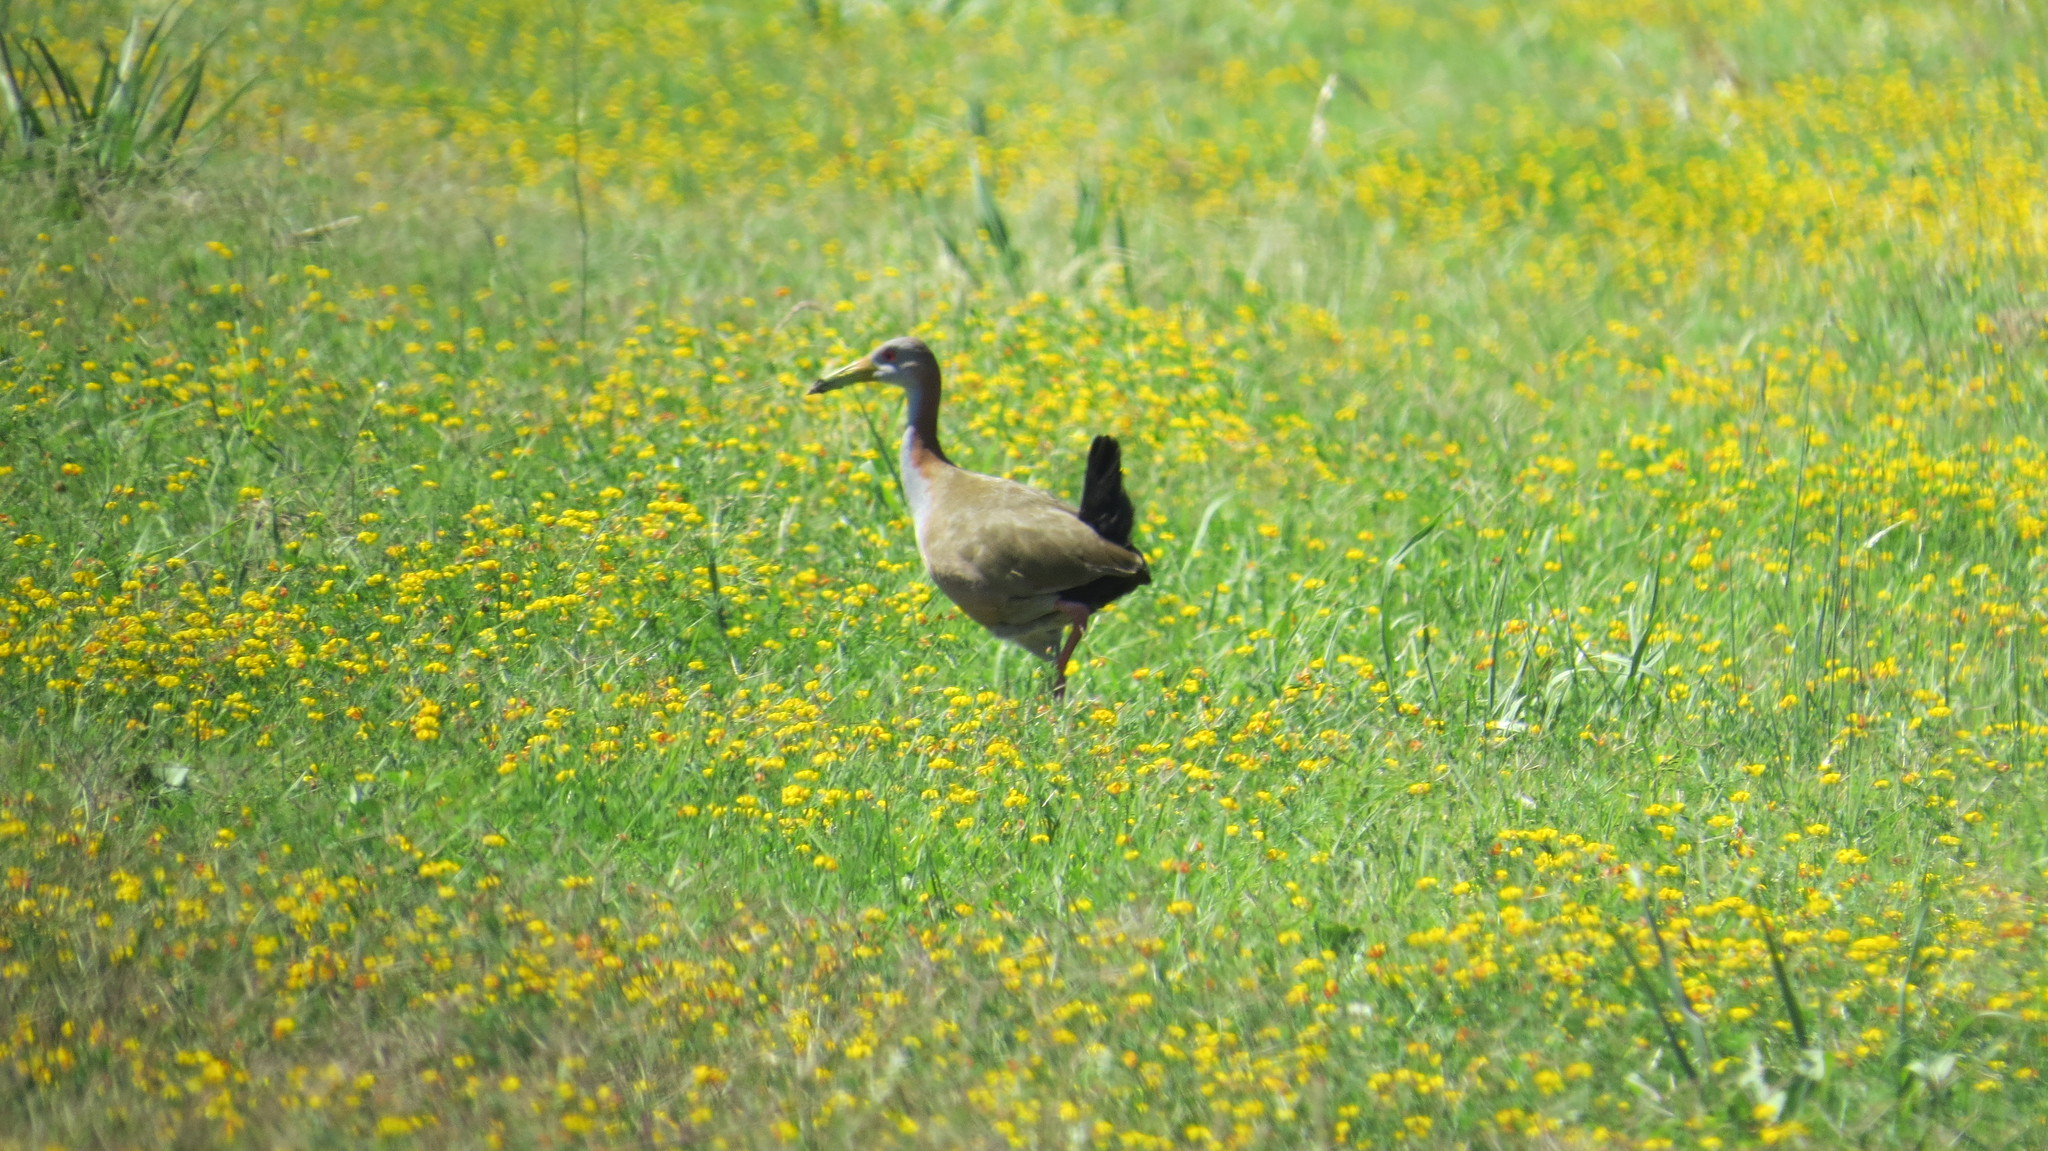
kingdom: Animalia
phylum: Chordata
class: Aves
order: Gruiformes
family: Rallidae
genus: Aramides
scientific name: Aramides ypecaha
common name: Giant wood rail
